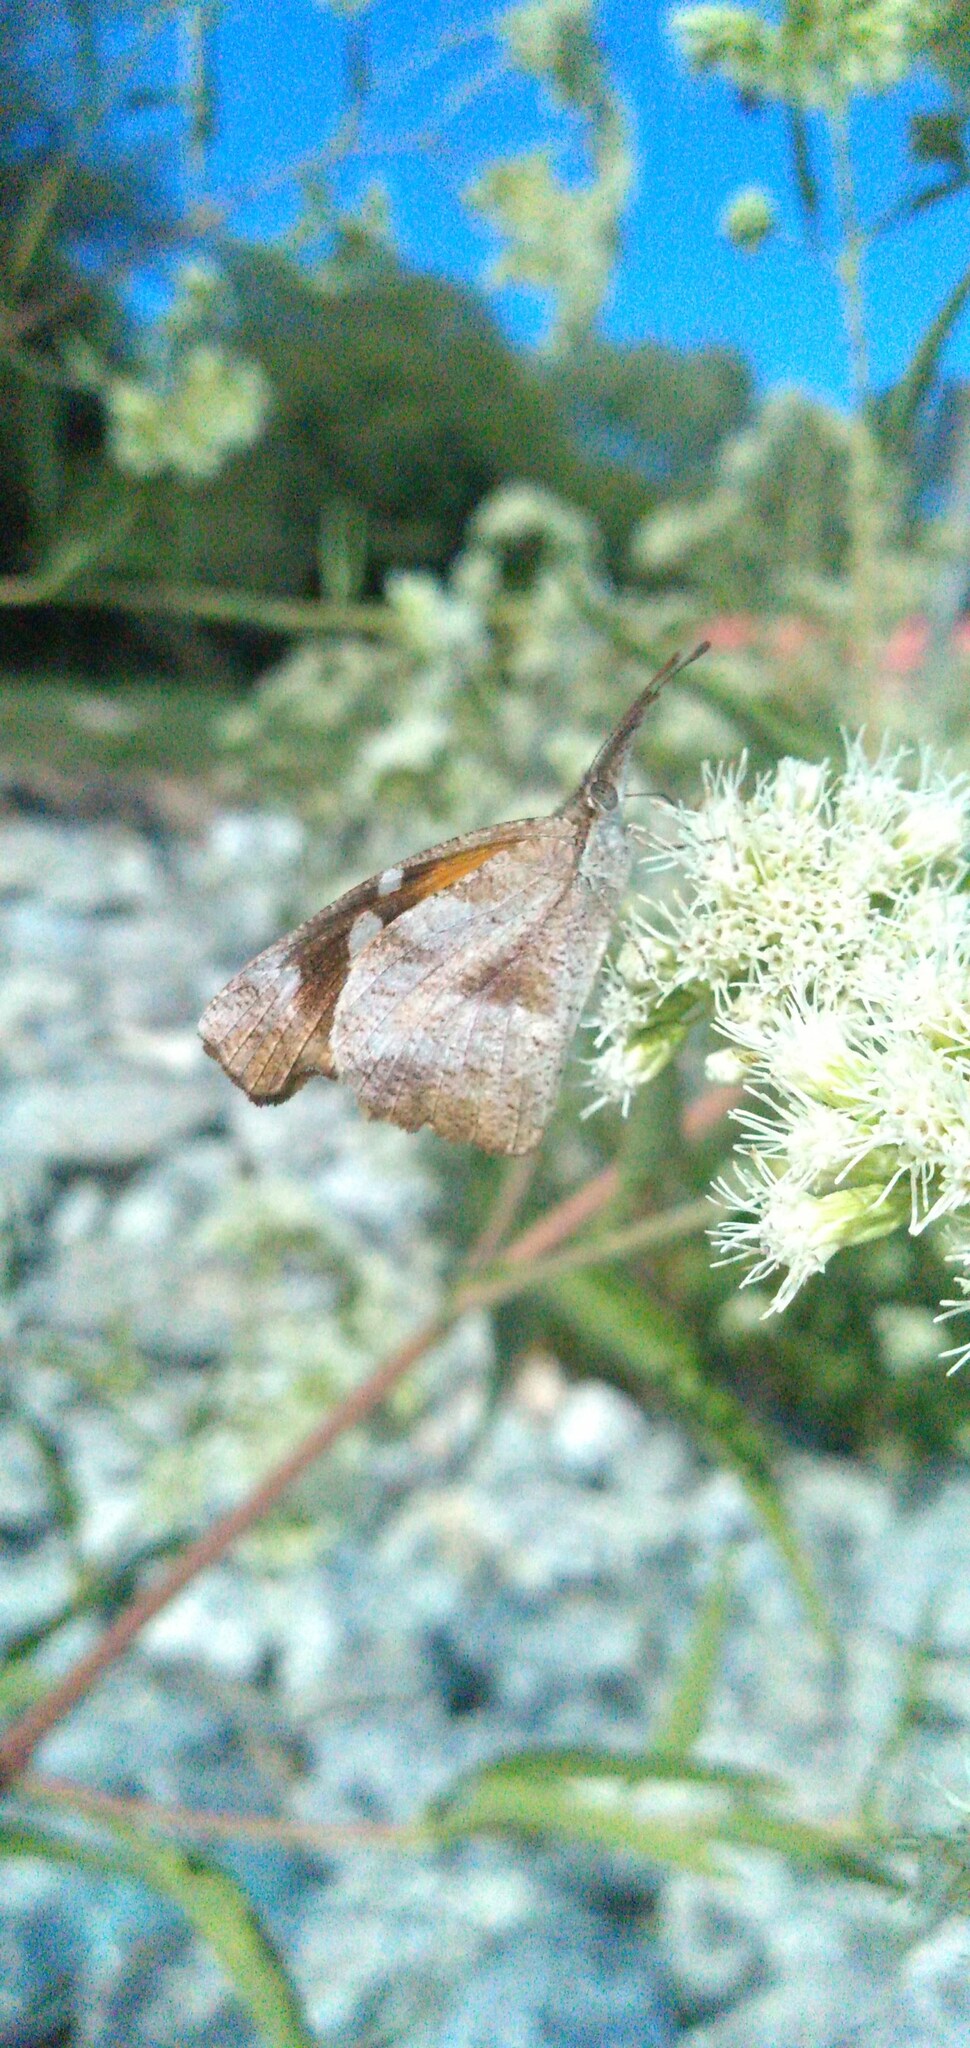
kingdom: Animalia
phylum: Arthropoda
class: Insecta
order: Lepidoptera
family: Nymphalidae
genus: Libytheana
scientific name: Libytheana carinenta
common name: American snout
